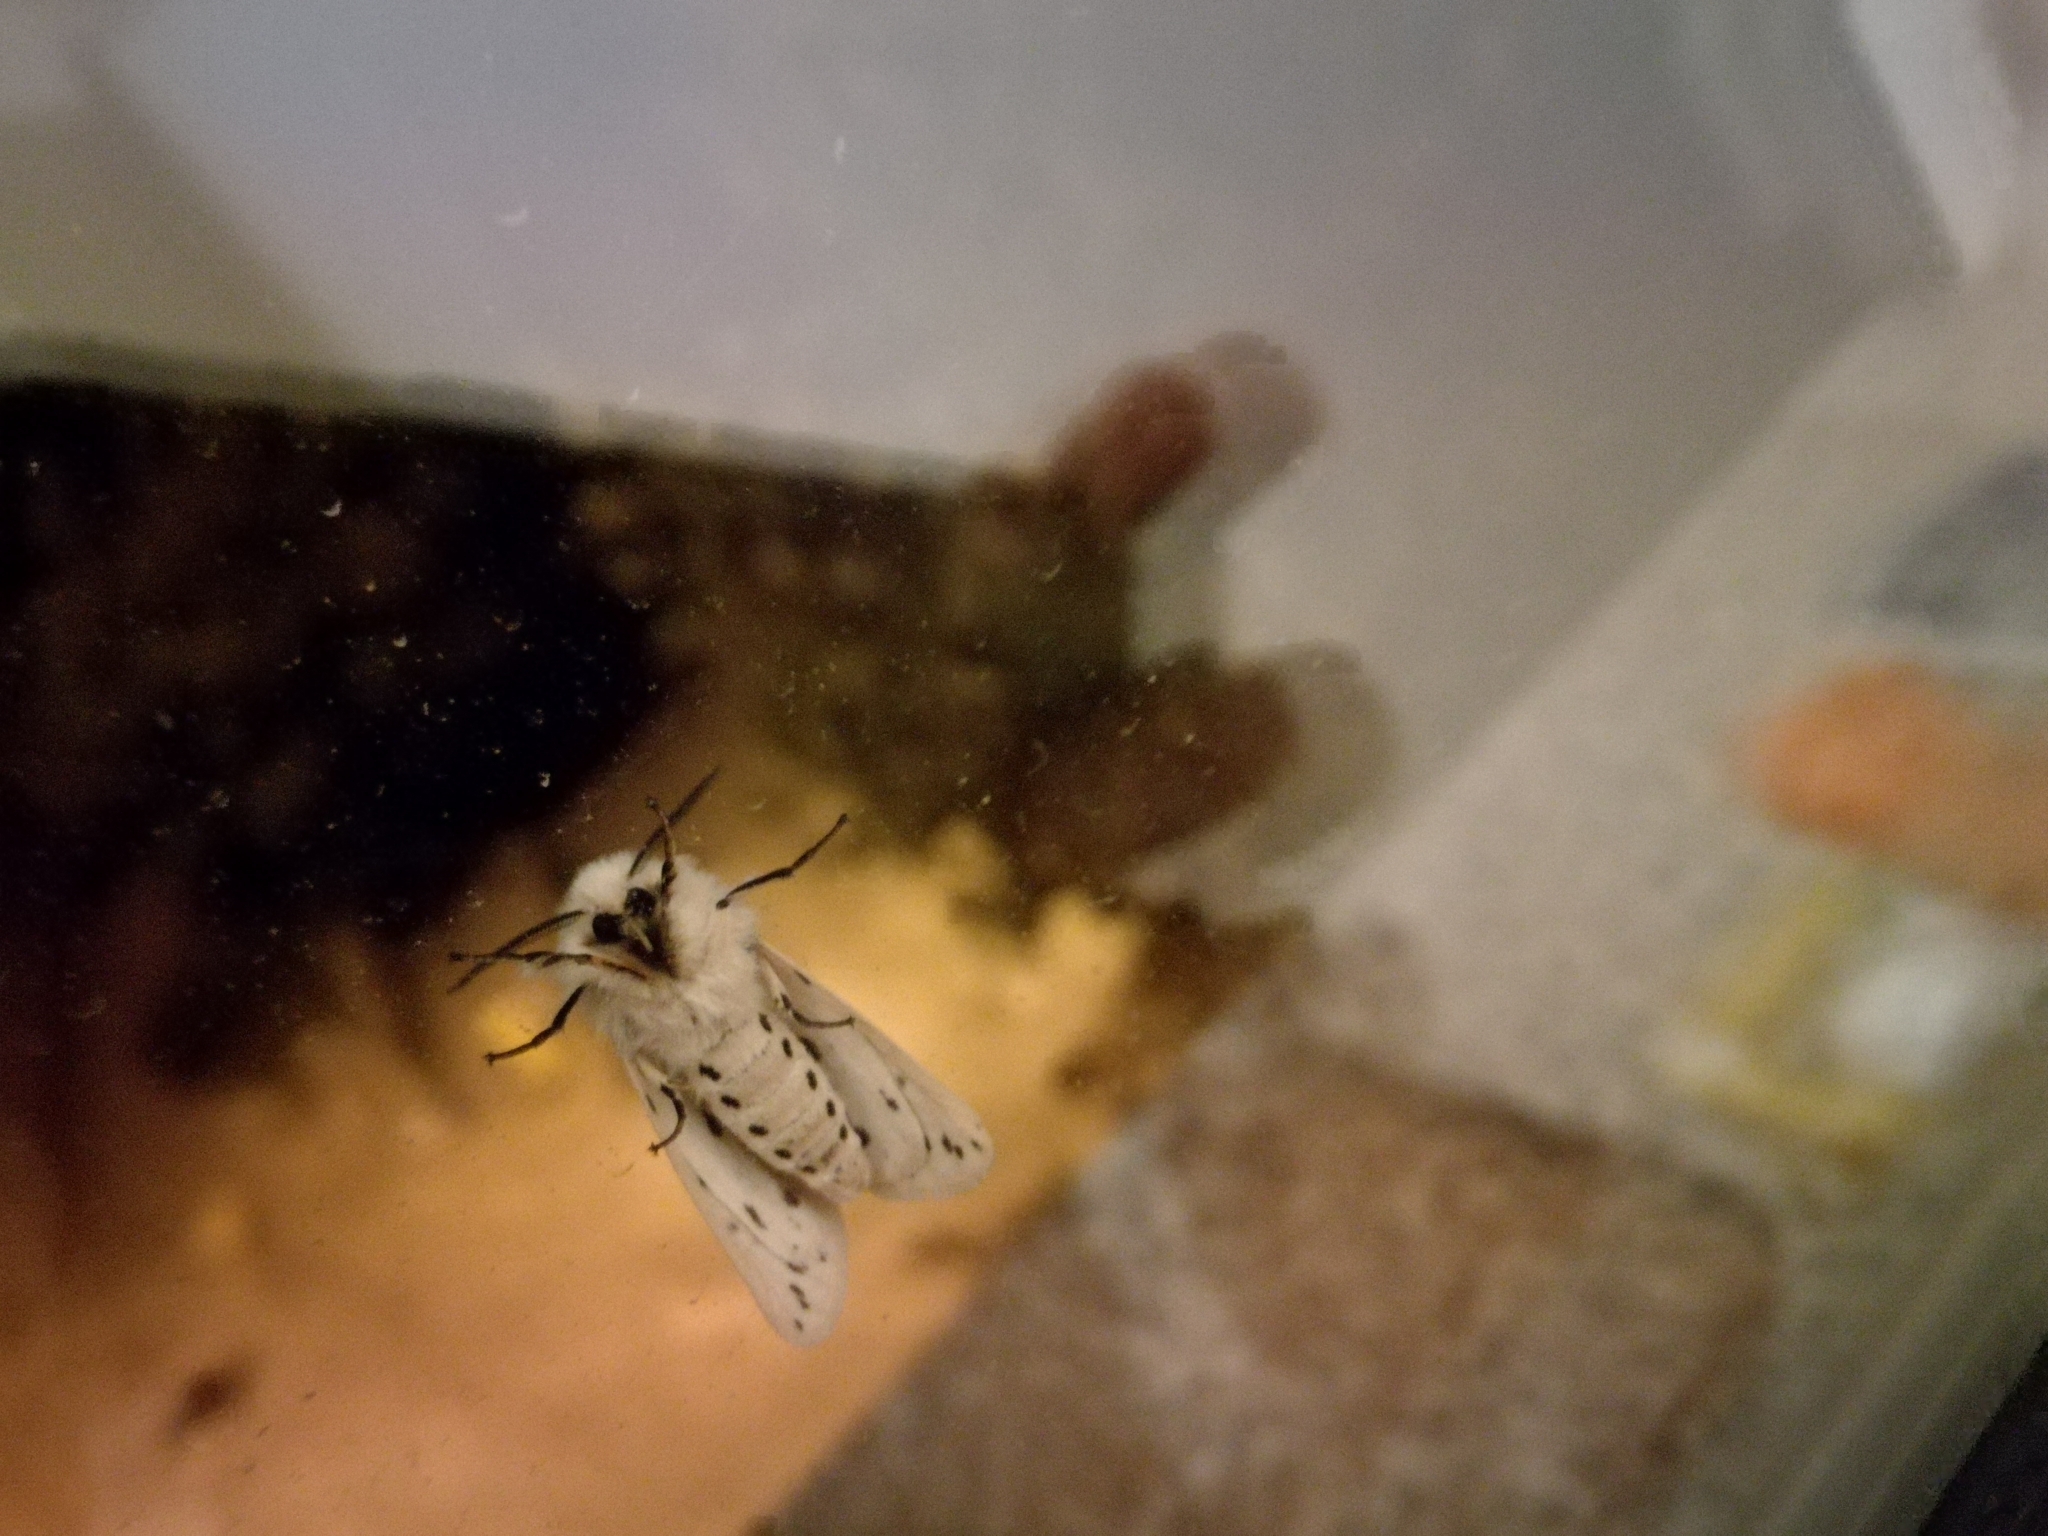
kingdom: Animalia
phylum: Arthropoda
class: Insecta
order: Lepidoptera
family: Erebidae
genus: Spilosoma
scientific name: Spilosoma lubricipeda
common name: White ermine
